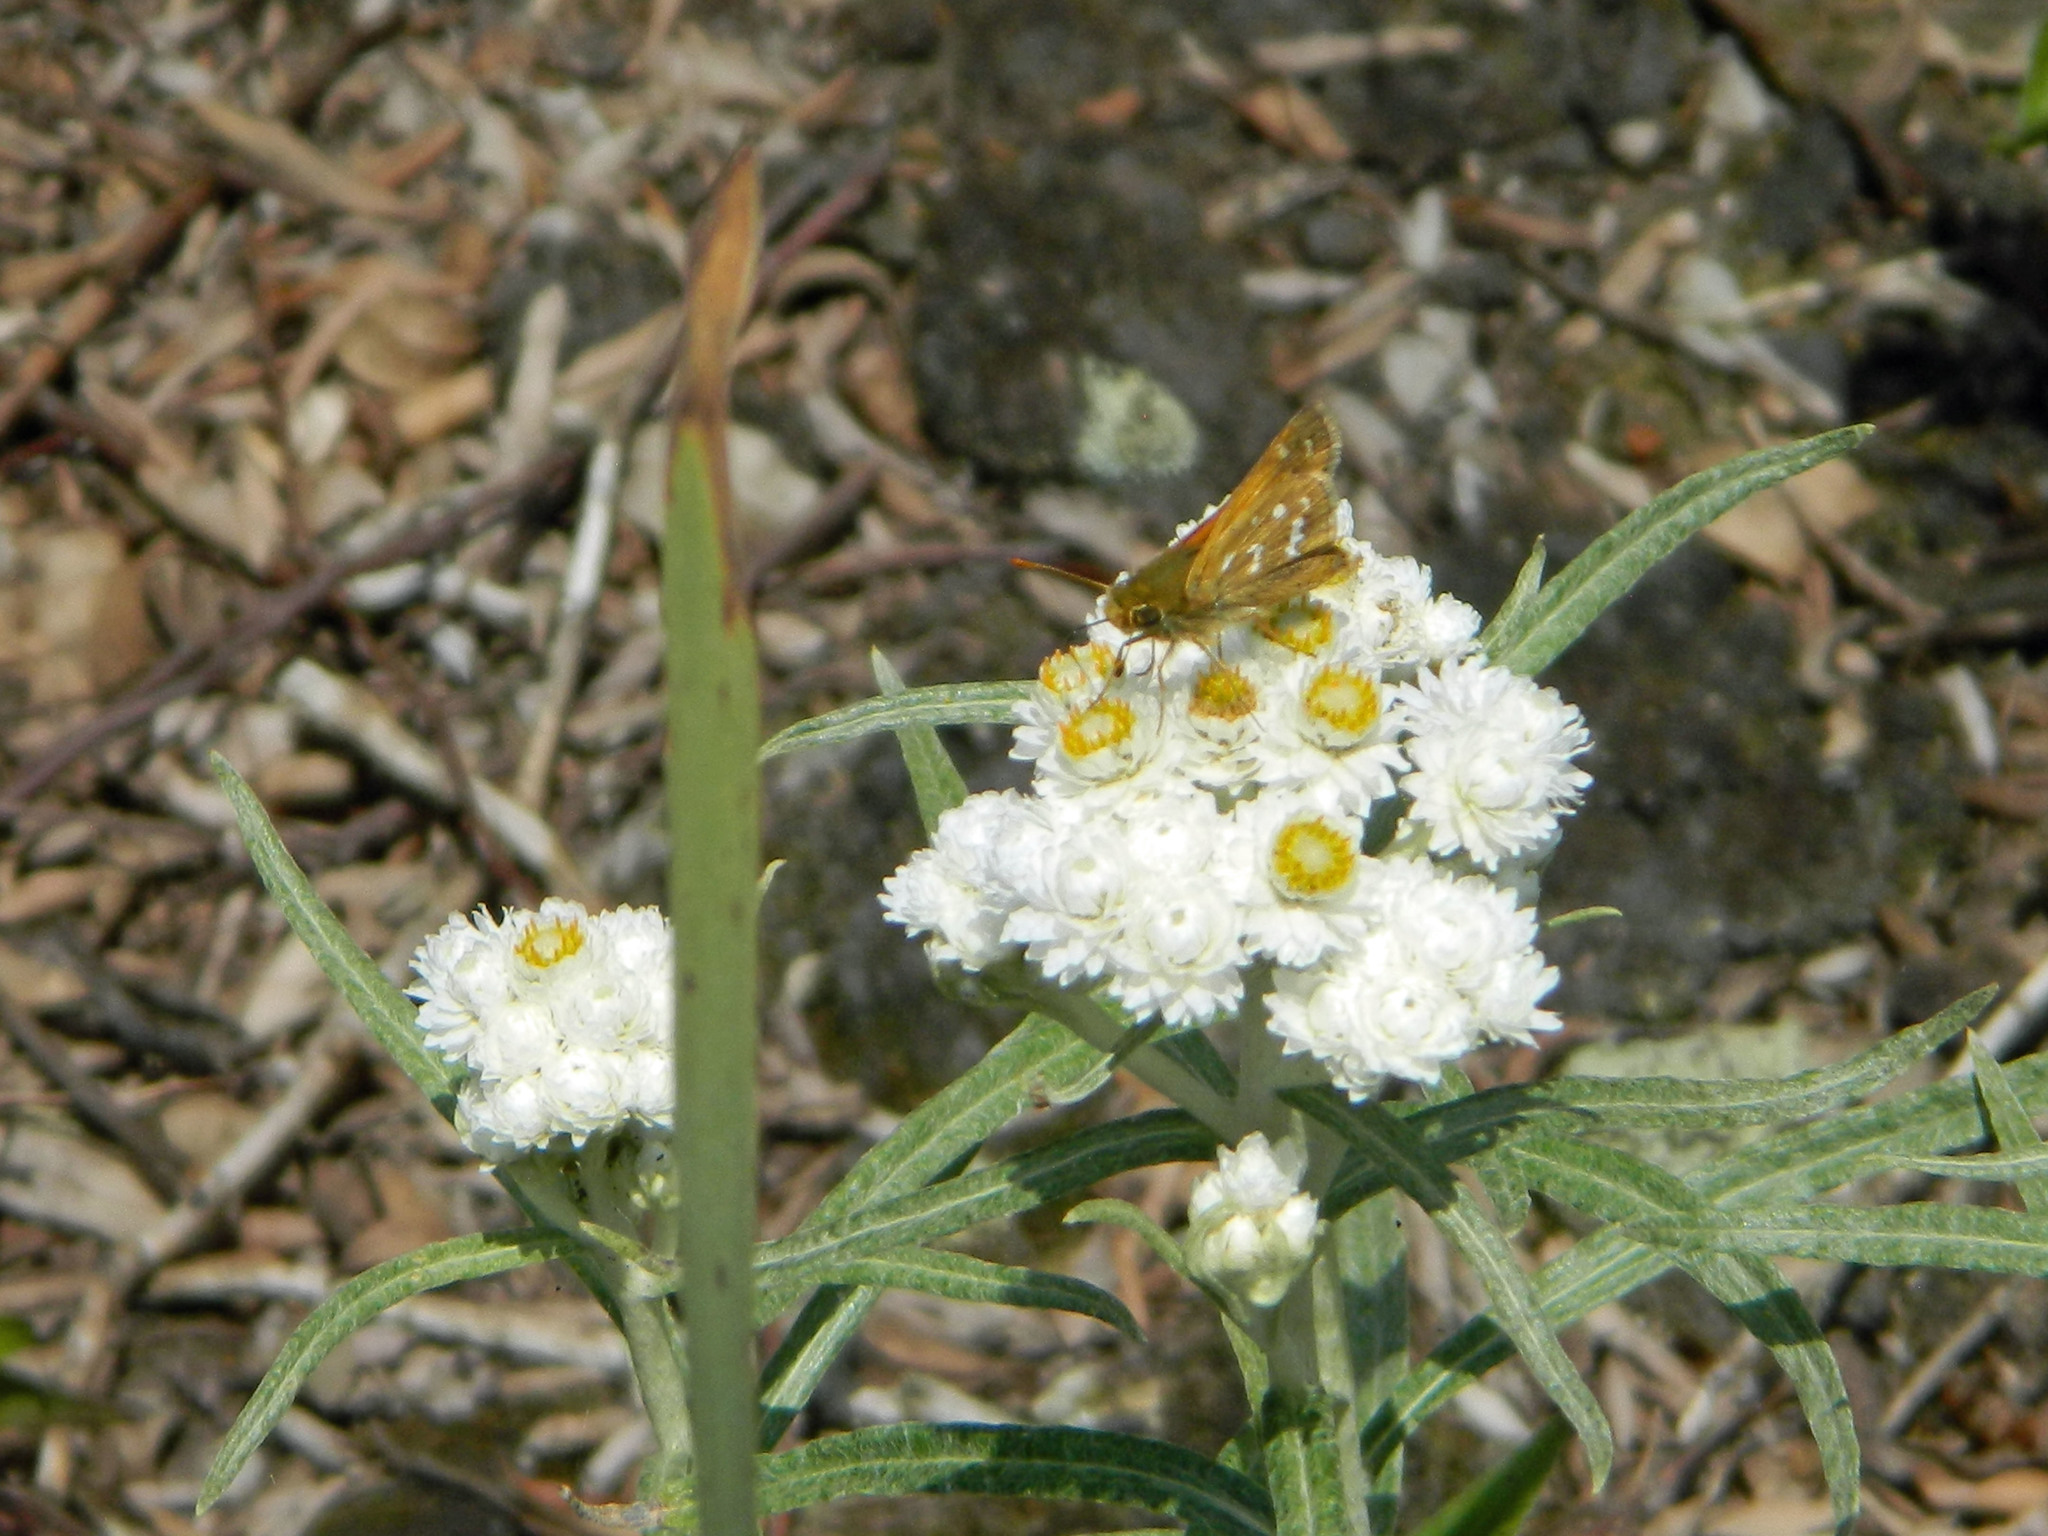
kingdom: Animalia
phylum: Arthropoda
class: Insecta
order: Lepidoptera
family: Hesperiidae
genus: Hesperia
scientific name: Hesperia comma
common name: Common branded skipper
